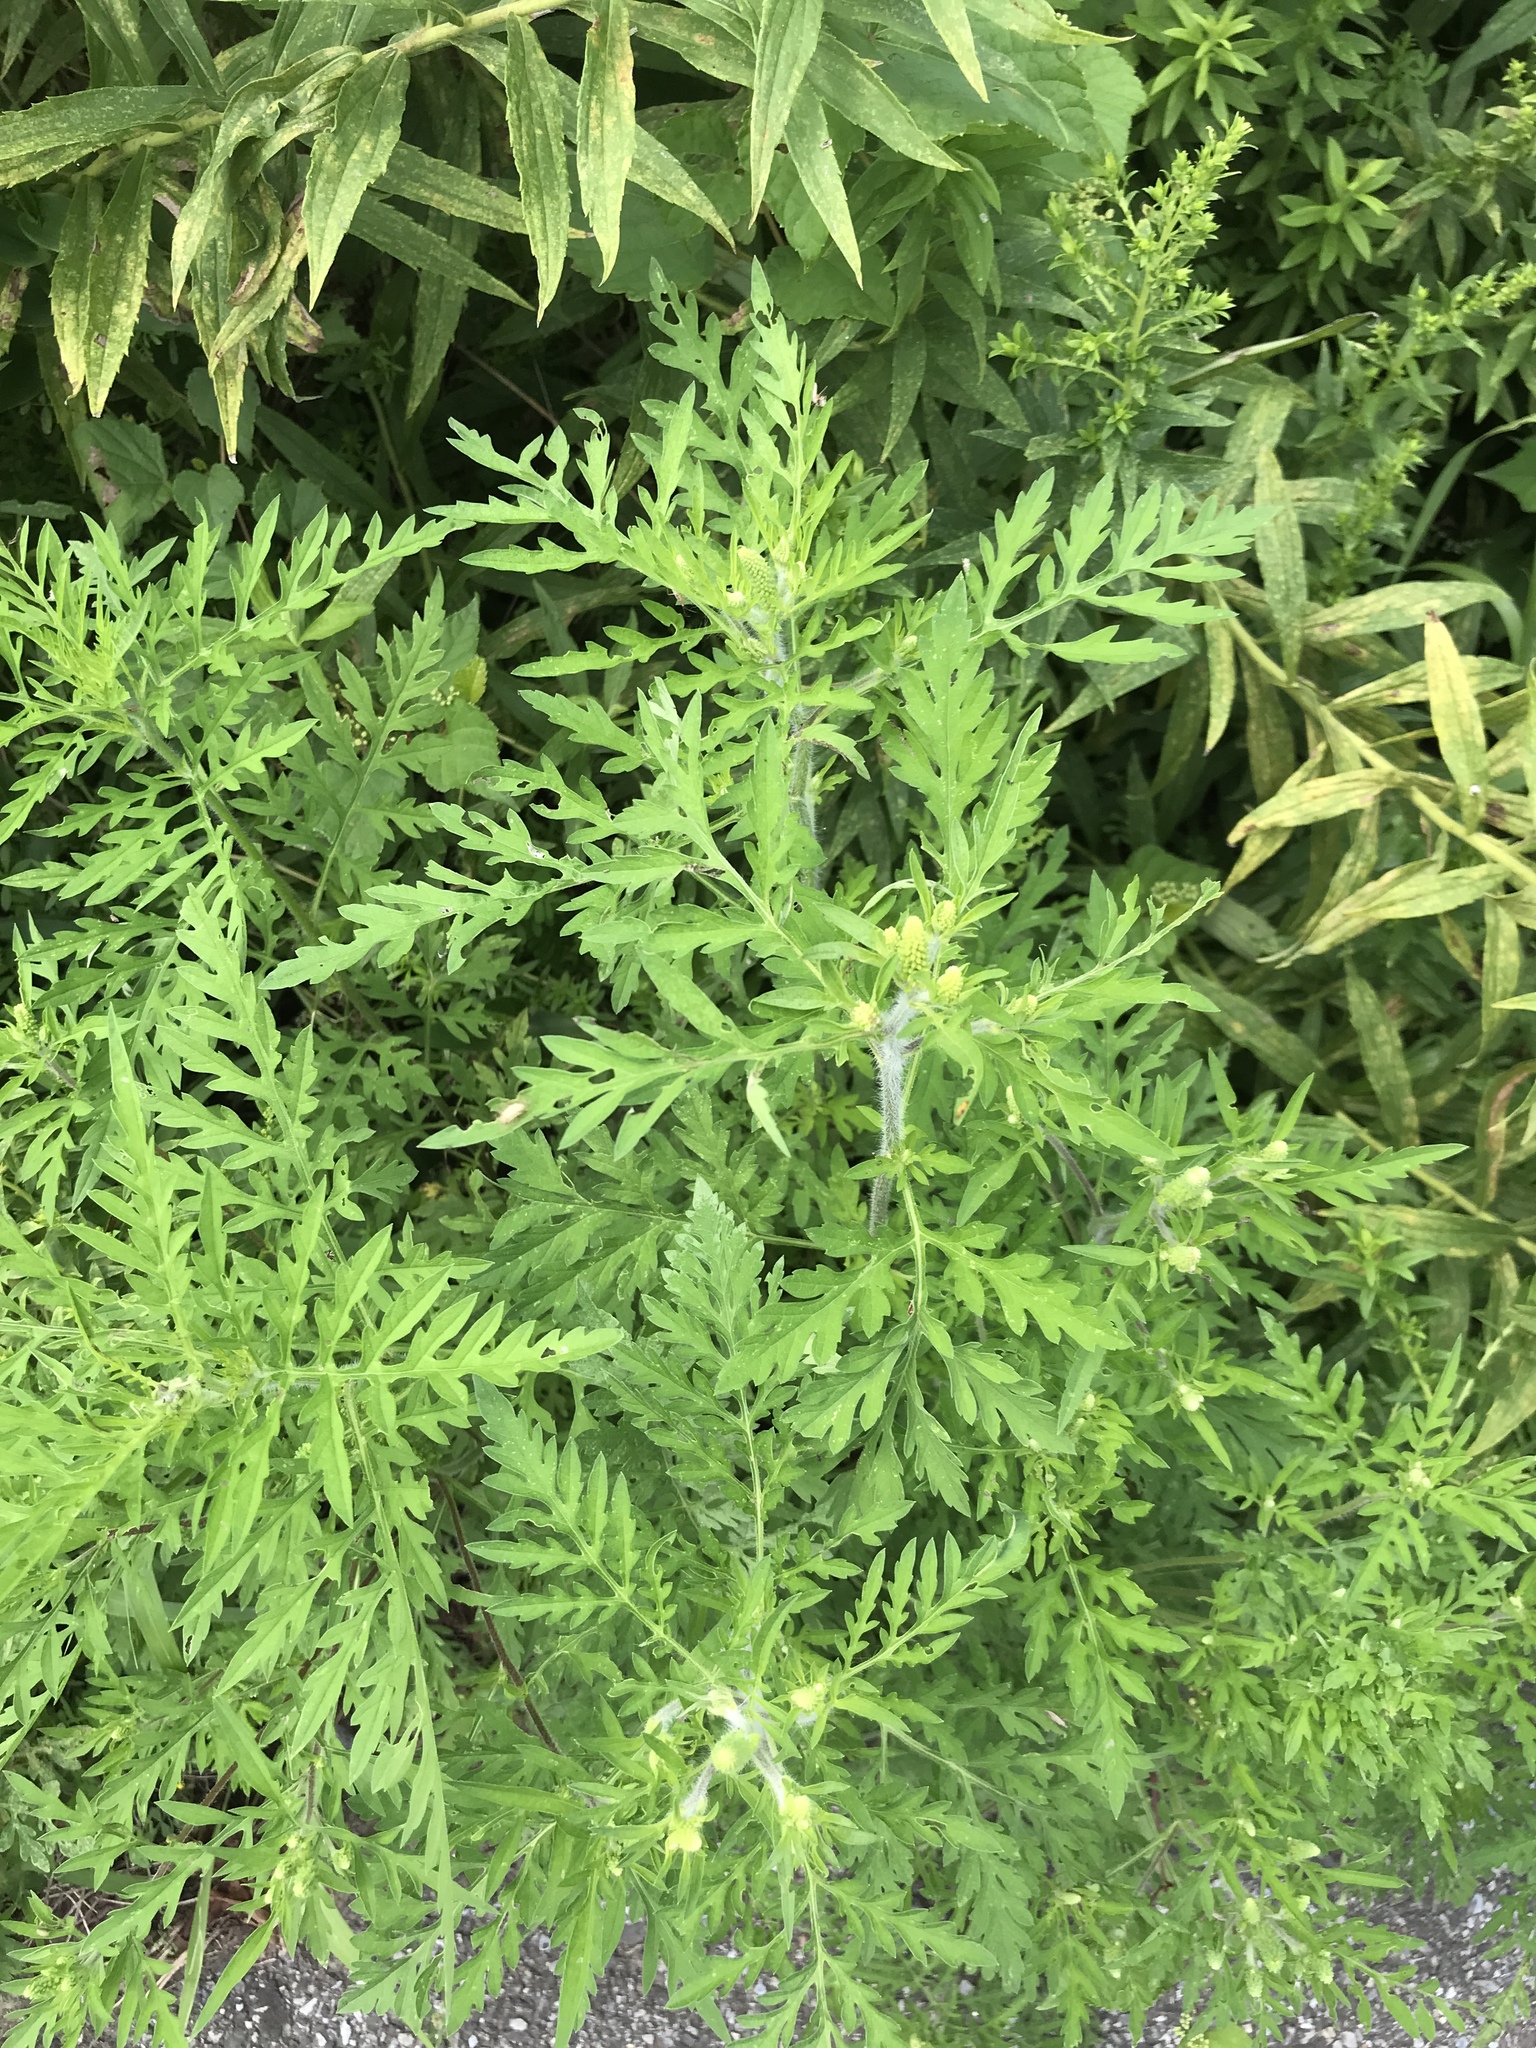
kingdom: Plantae
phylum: Tracheophyta
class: Magnoliopsida
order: Asterales
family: Asteraceae
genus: Ambrosia
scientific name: Ambrosia artemisiifolia
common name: Annual ragweed
